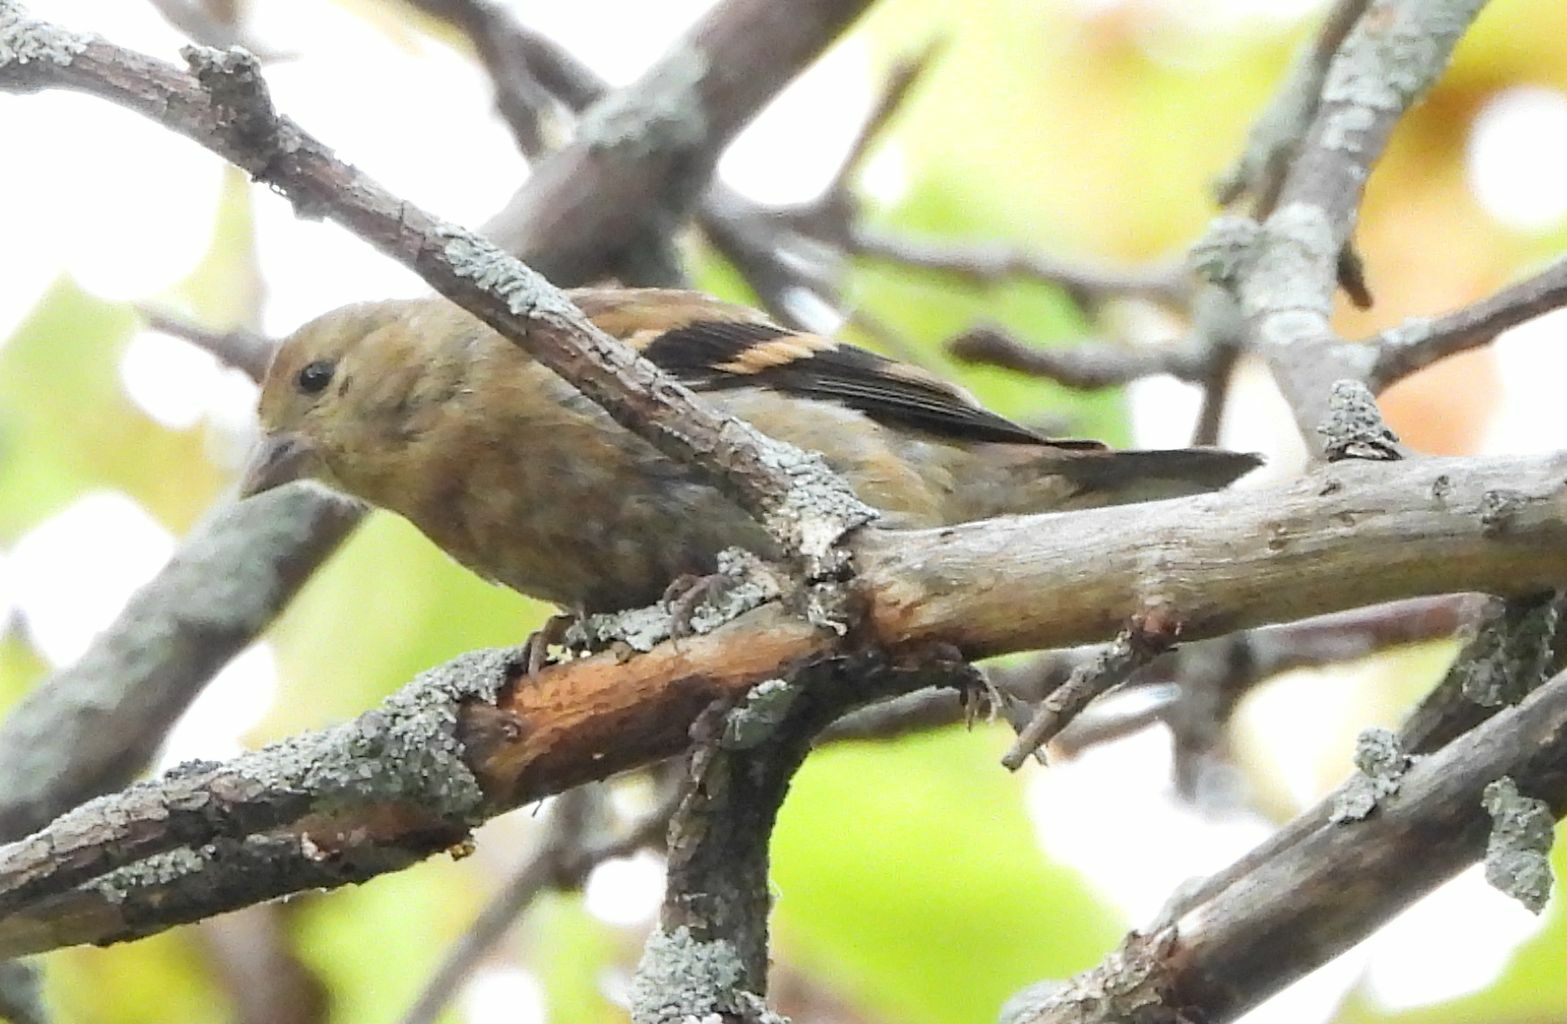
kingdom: Animalia
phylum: Chordata
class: Aves
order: Passeriformes
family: Fringillidae
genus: Spinus
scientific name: Spinus tristis
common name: American goldfinch
